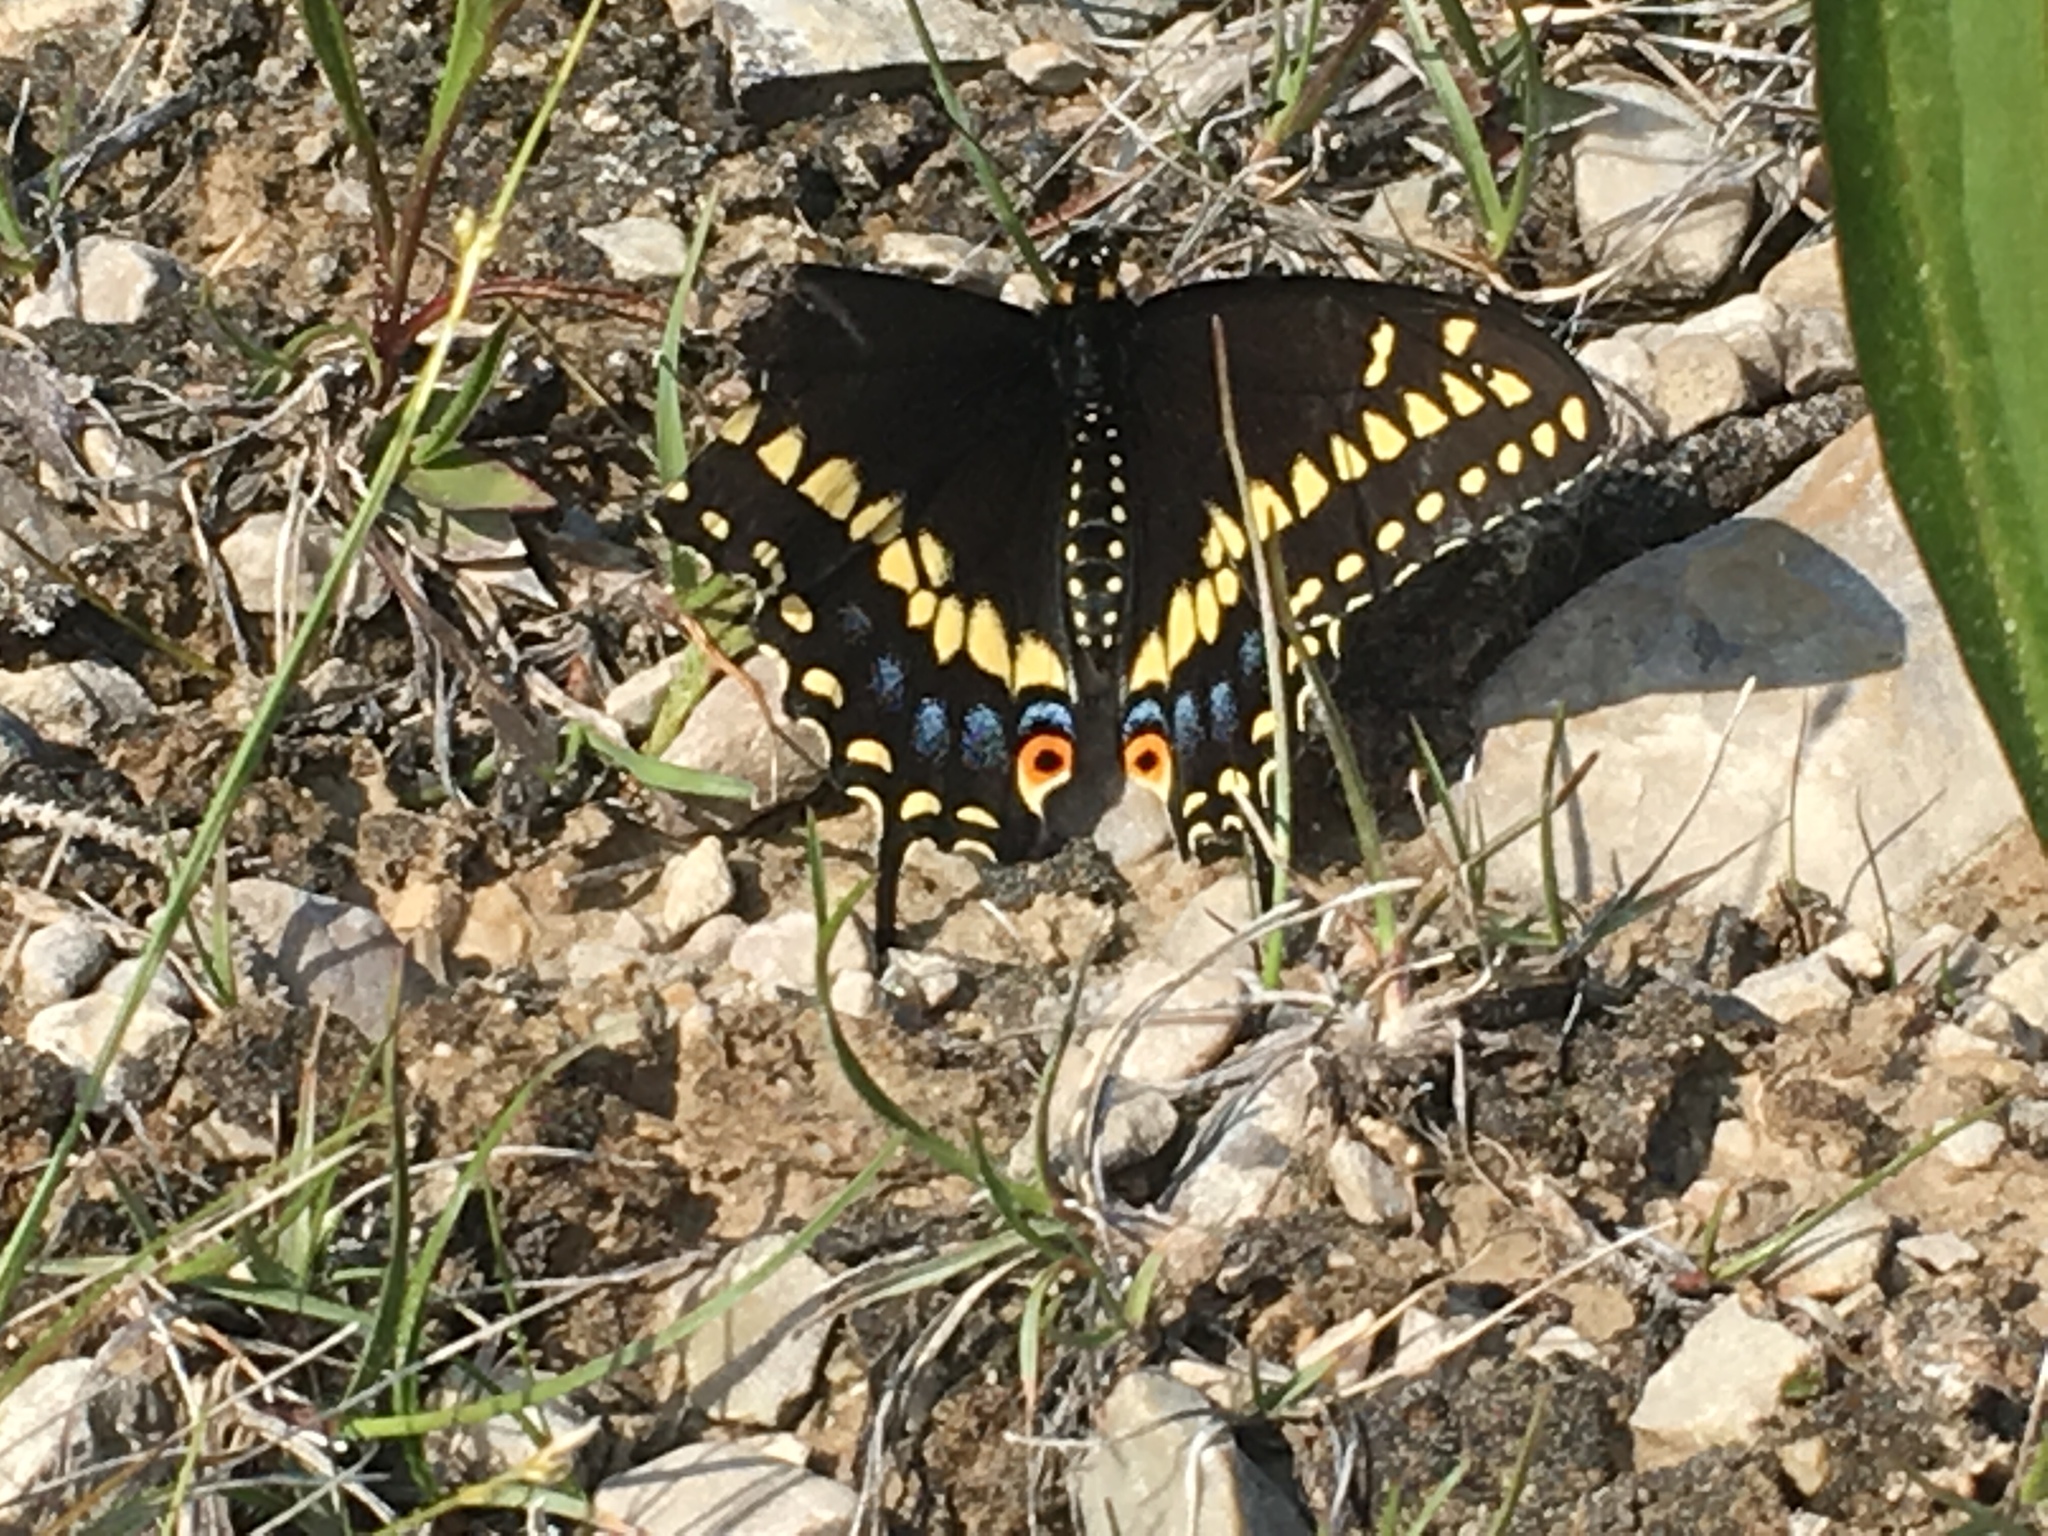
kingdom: Animalia
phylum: Arthropoda
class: Insecta
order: Lepidoptera
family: Papilionidae
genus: Papilio
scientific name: Papilio polyxenes
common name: Black swallowtail
